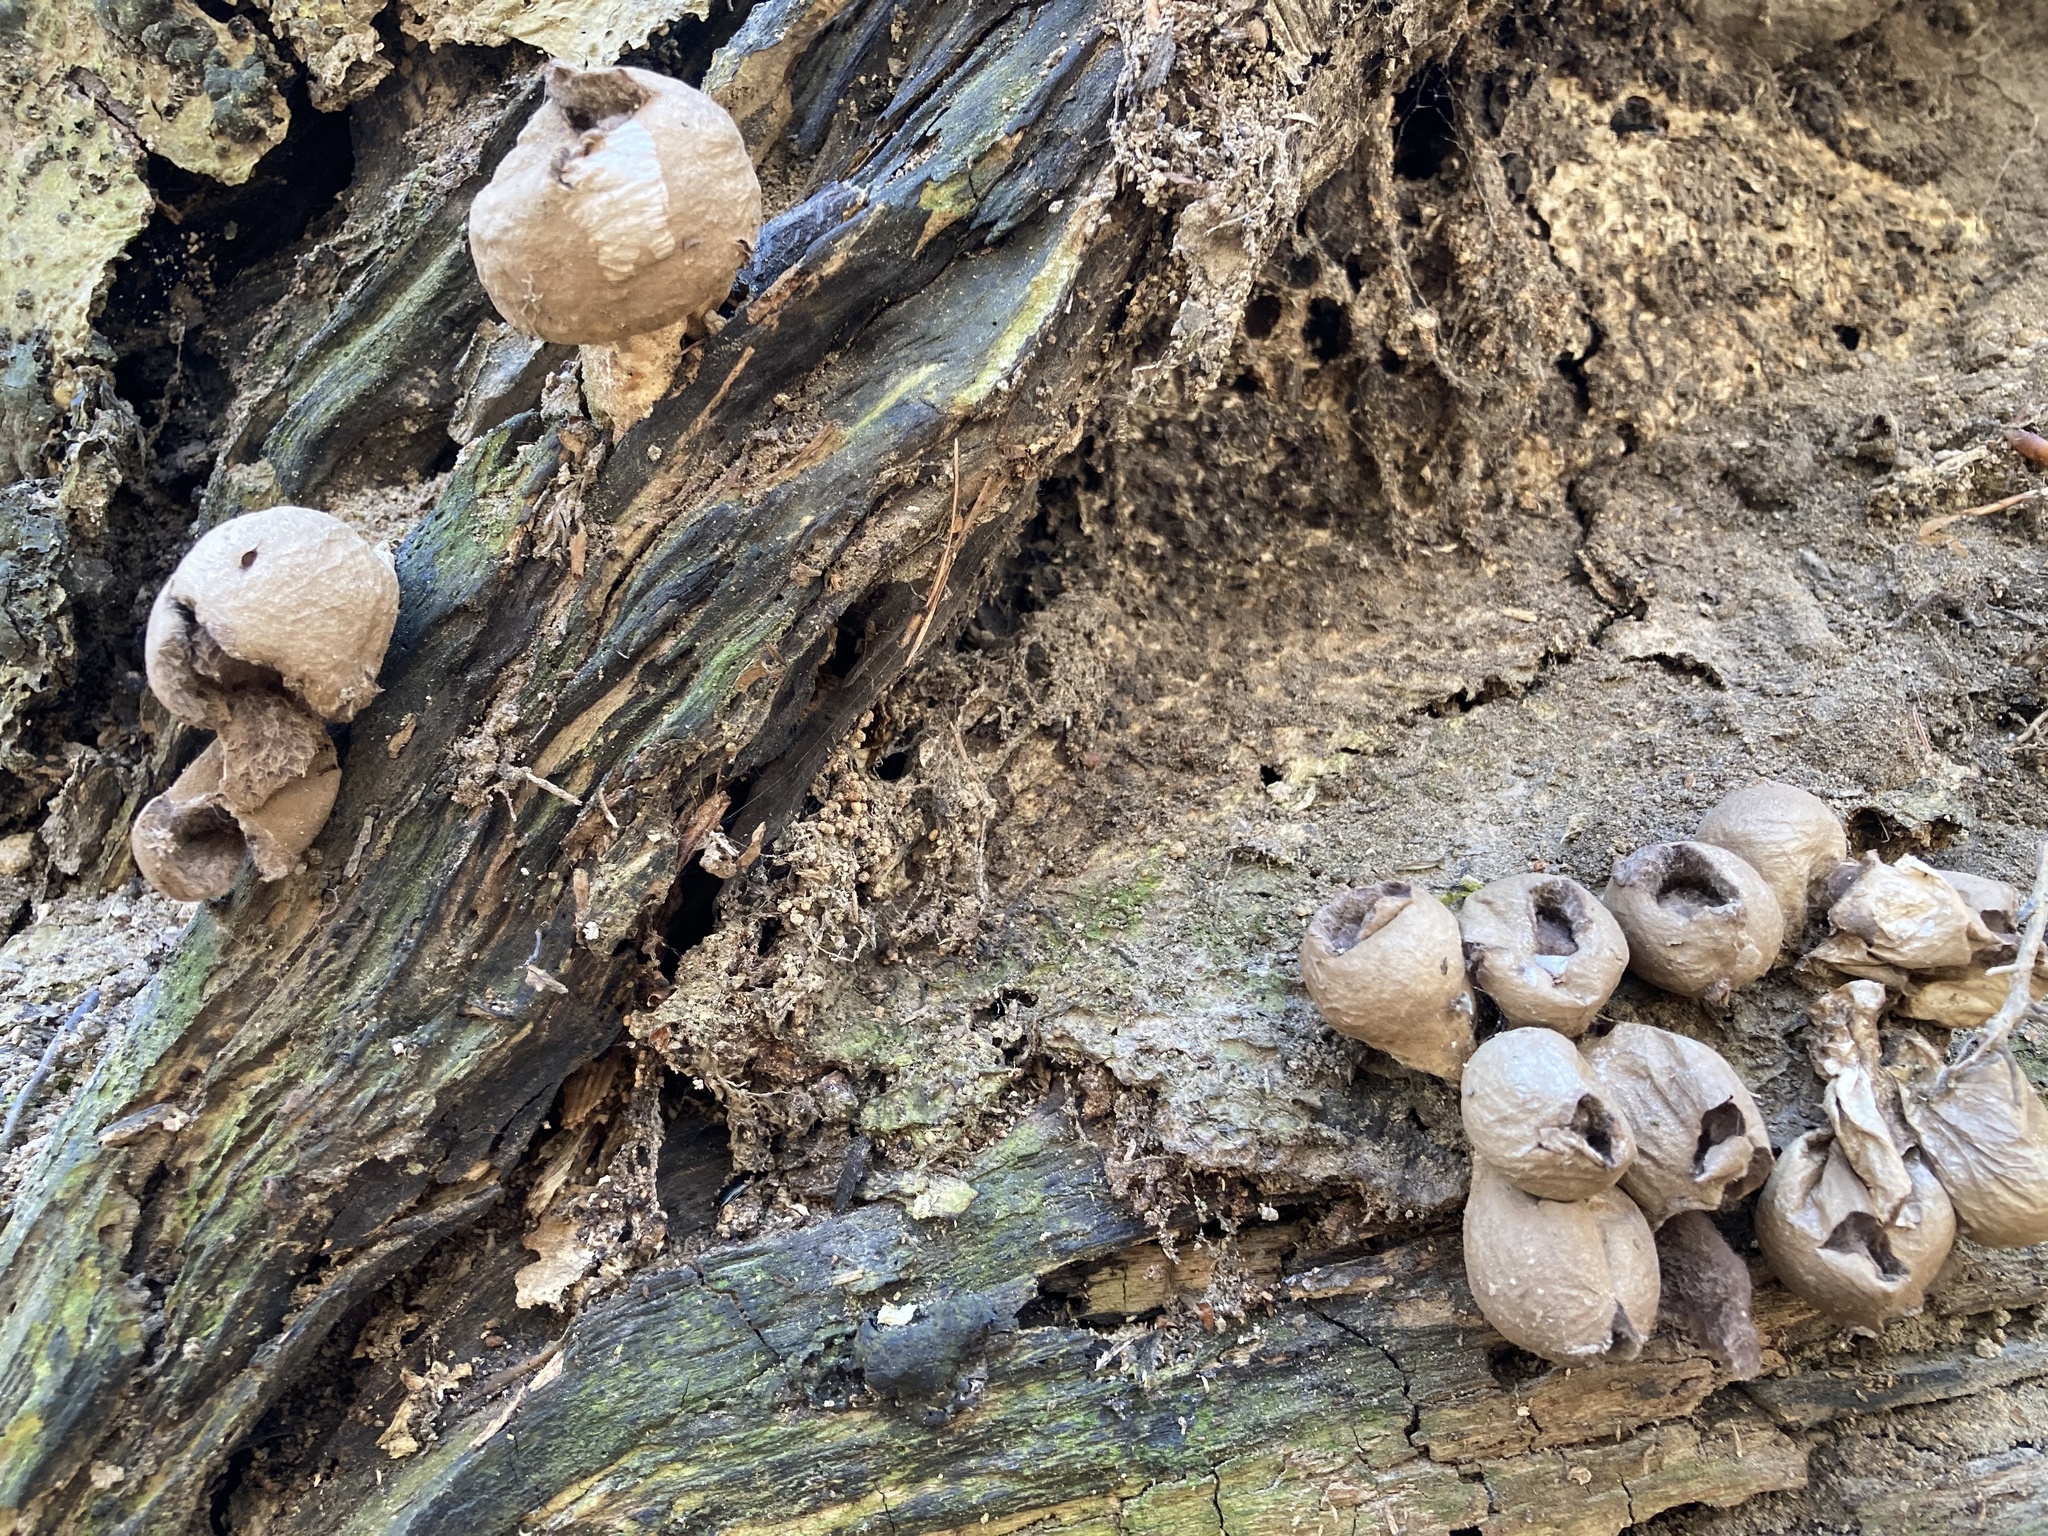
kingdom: Fungi
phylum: Basidiomycota
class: Agaricomycetes
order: Agaricales
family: Lycoperdaceae
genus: Apioperdon
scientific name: Apioperdon pyriforme
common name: Pear-shaped puffball
